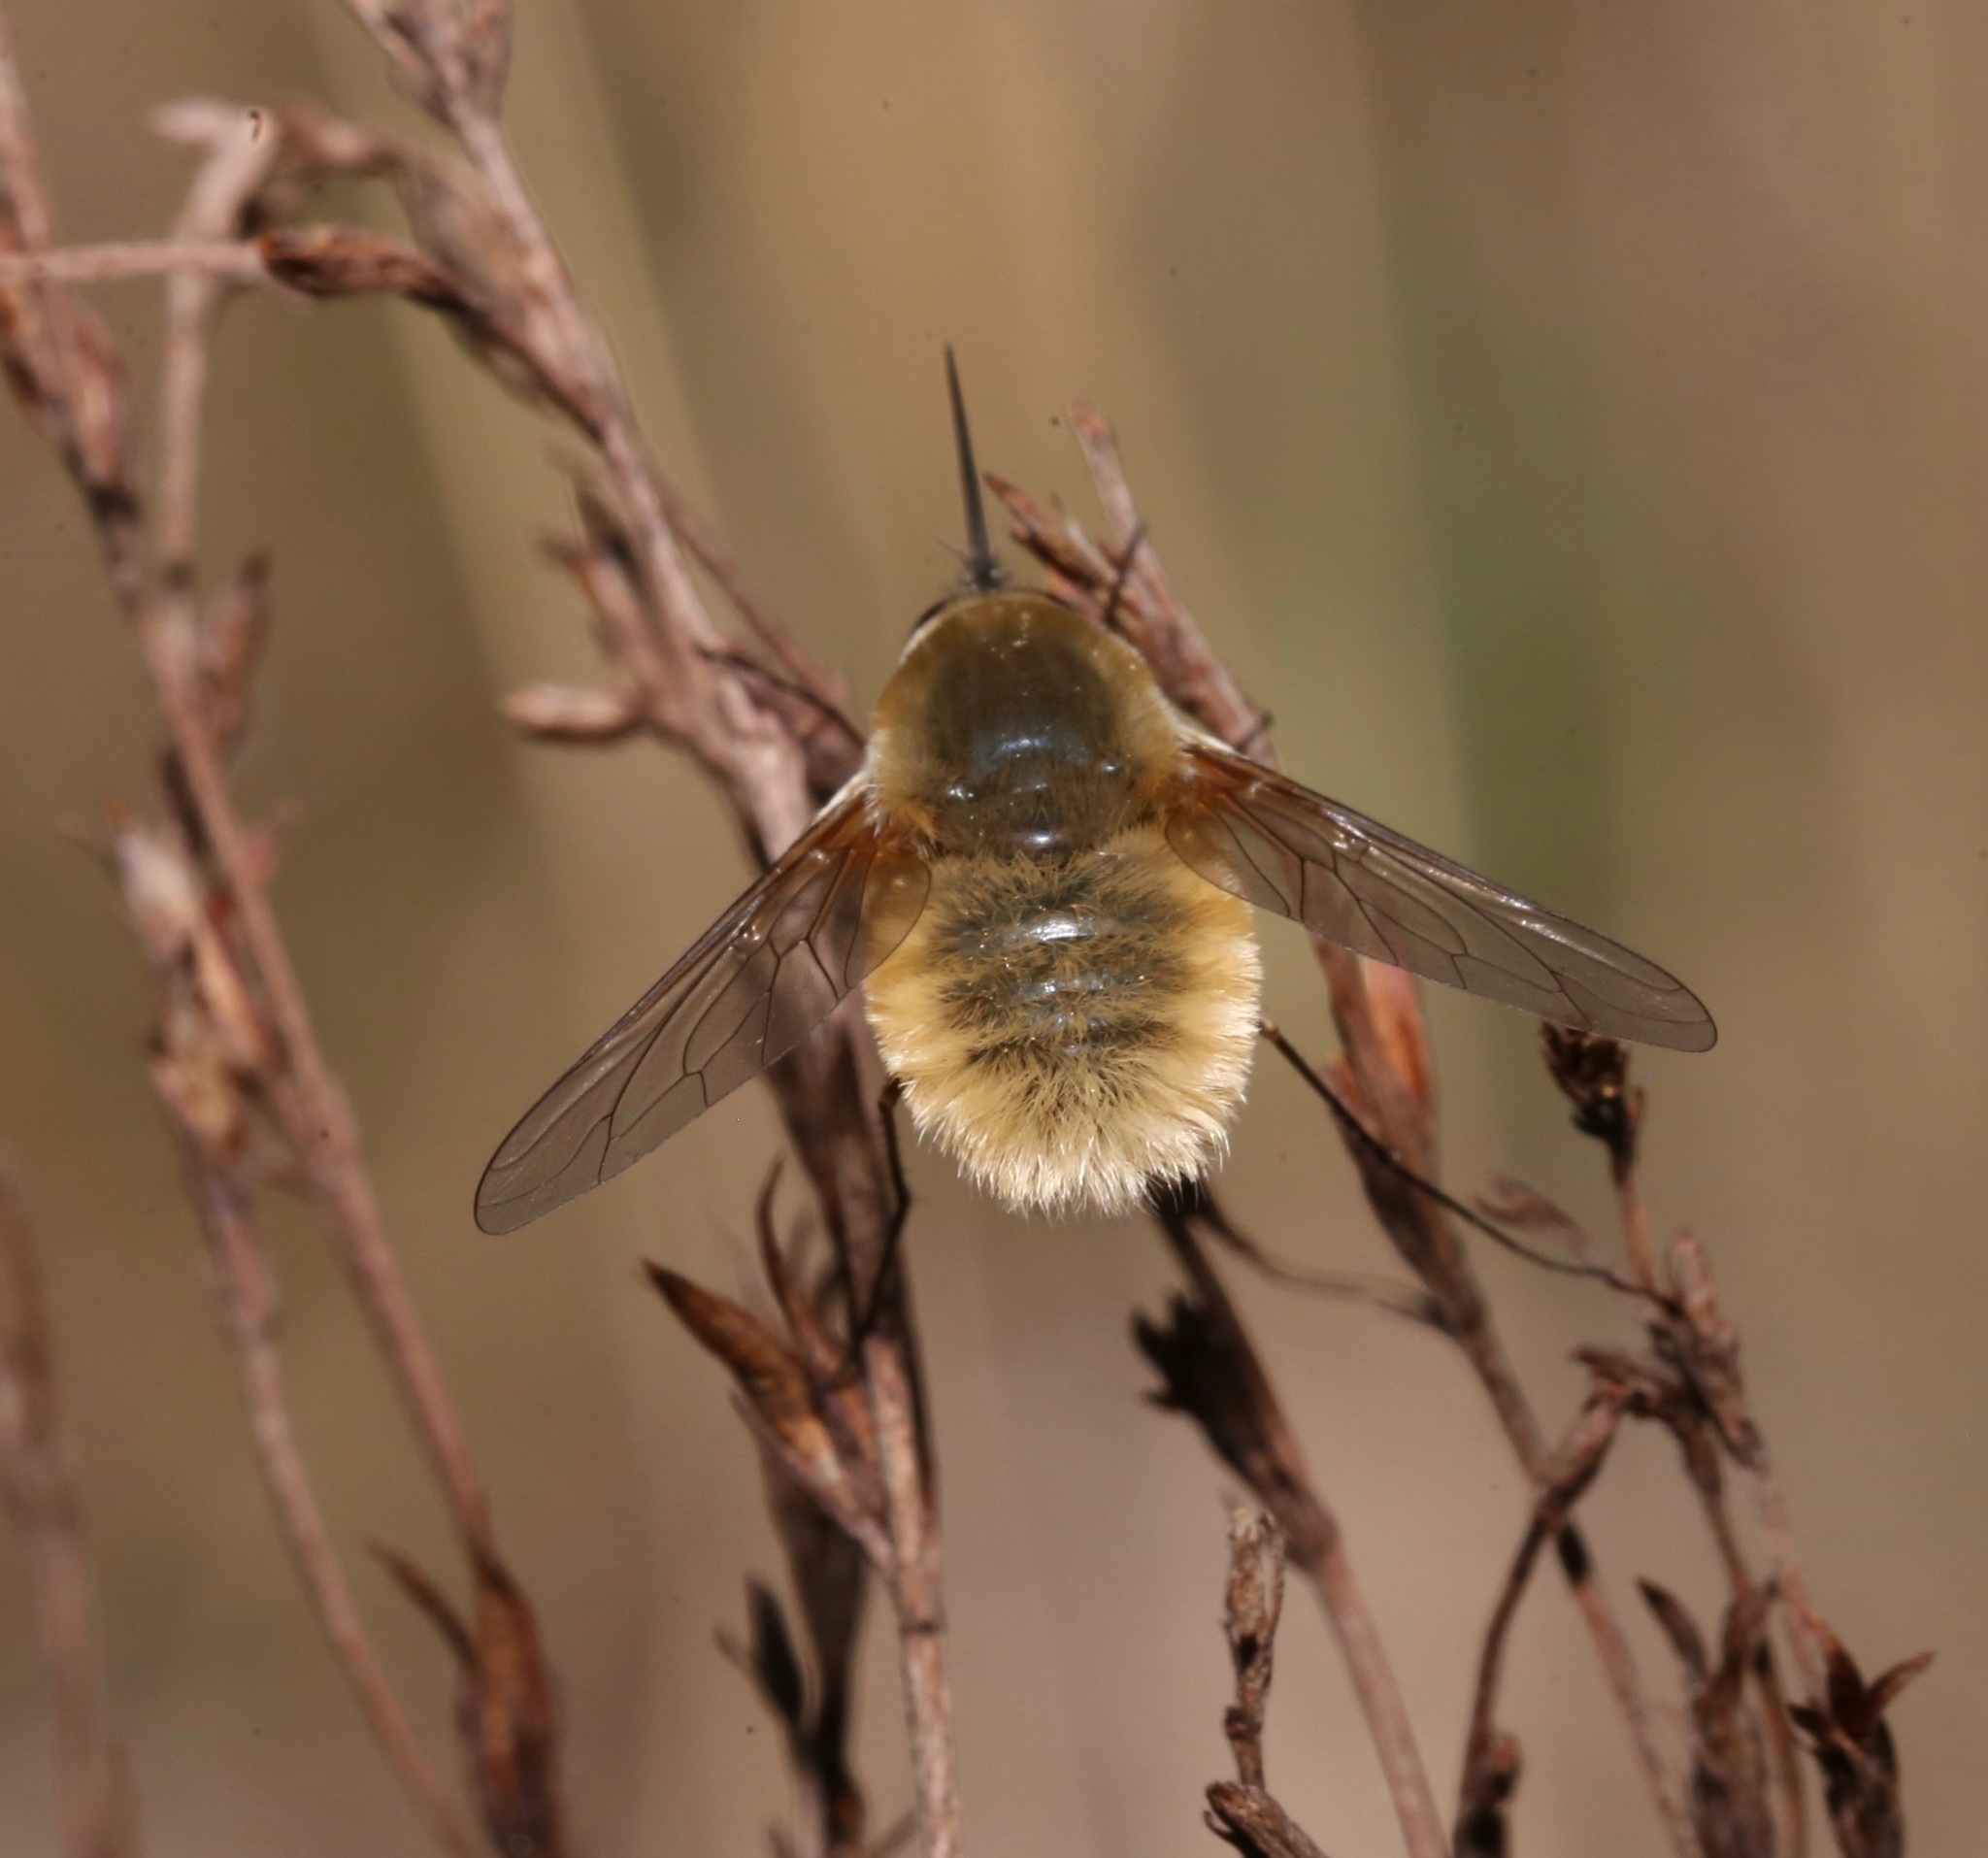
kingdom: Animalia
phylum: Arthropoda
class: Insecta
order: Diptera
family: Bombyliidae
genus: Systoechus
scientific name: Systoechus solitus
